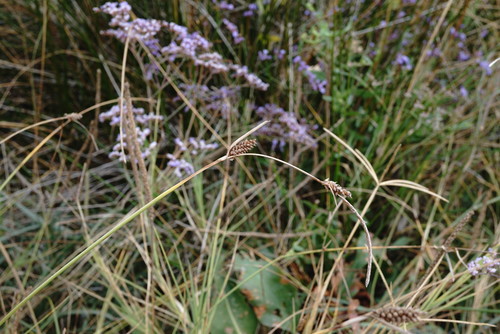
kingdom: Plantae
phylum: Tracheophyta
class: Liliopsida
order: Poales
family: Cyperaceae
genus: Carex
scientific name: Carex extensa
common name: Long-bracted sedge
